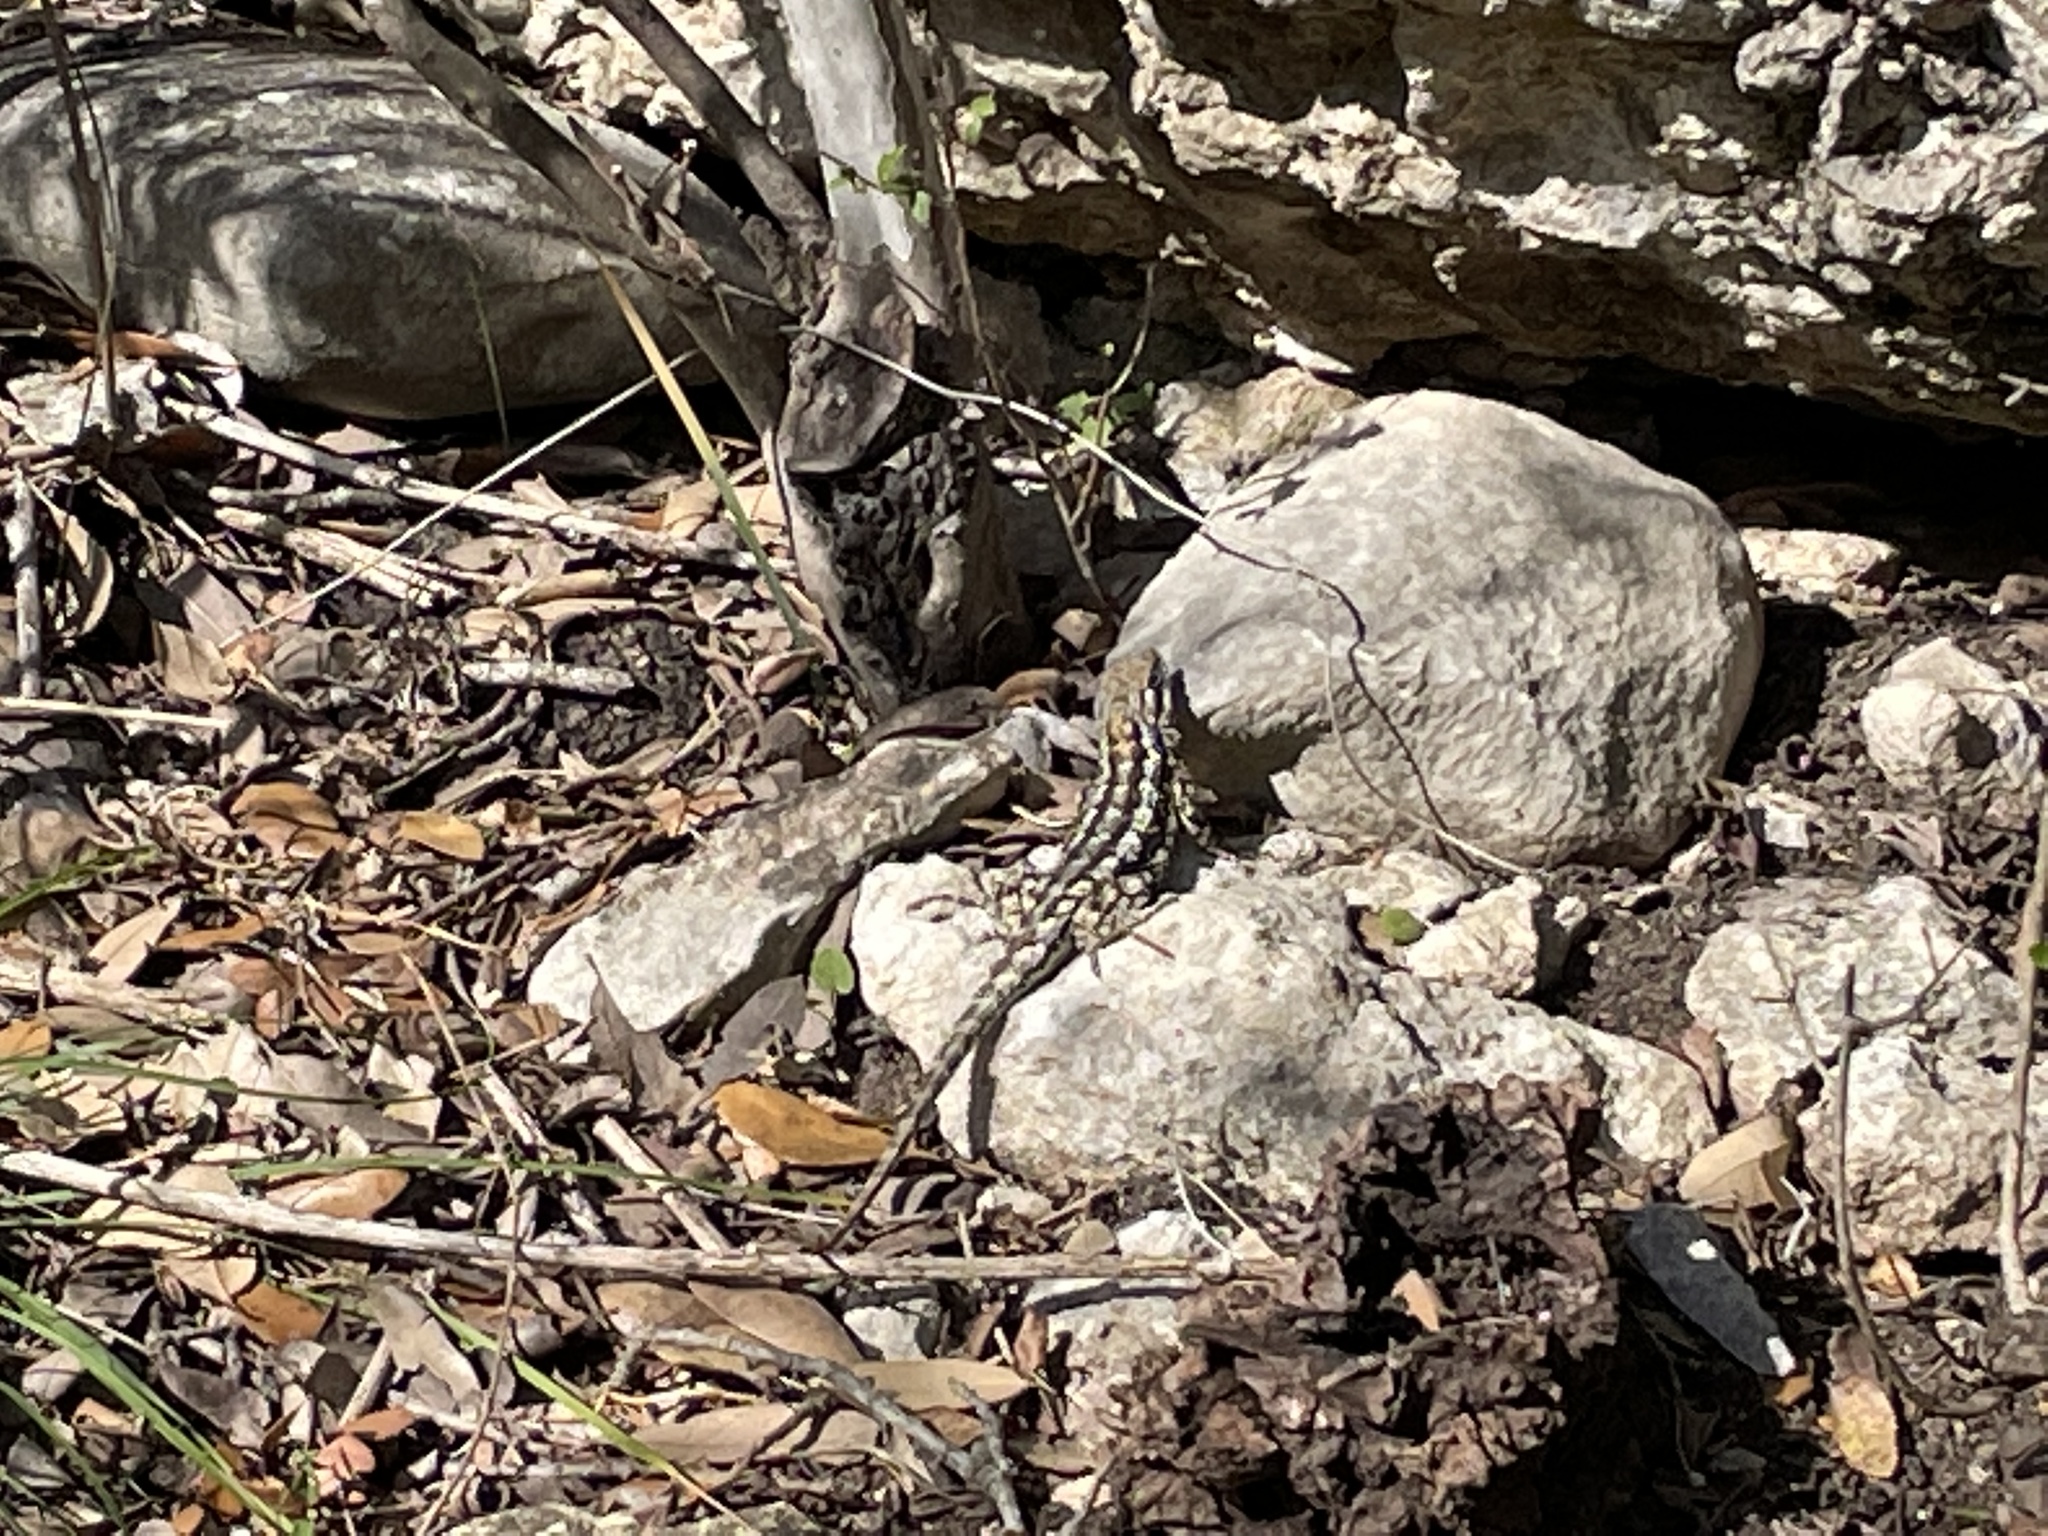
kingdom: Animalia
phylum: Chordata
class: Squamata
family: Phrynosomatidae
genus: Sceloporus
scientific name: Sceloporus olivaceus
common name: Texas spiny lizard
